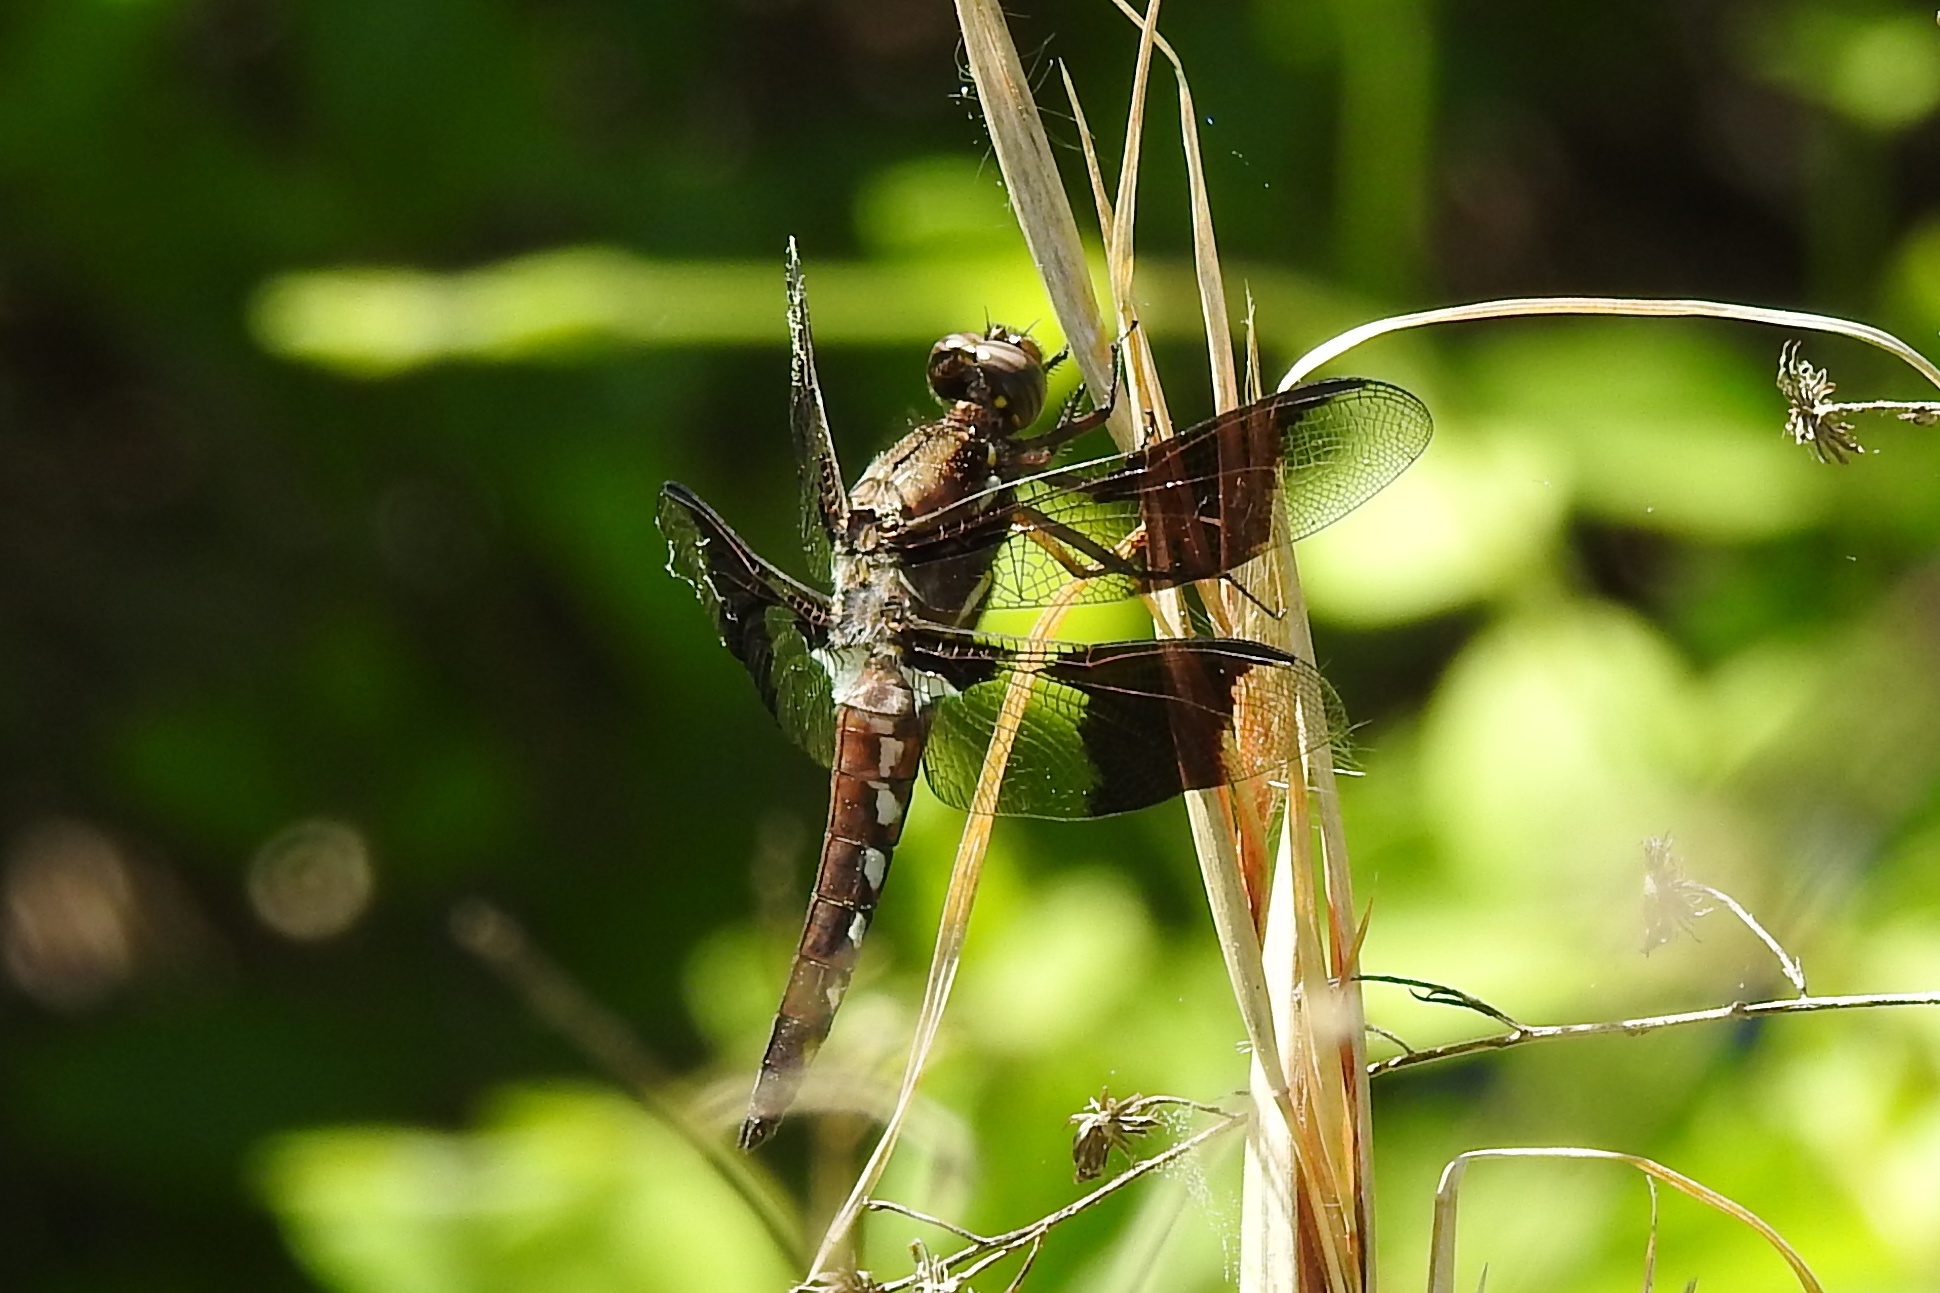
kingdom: Animalia
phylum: Arthropoda
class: Insecta
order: Odonata
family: Libellulidae
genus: Plathemis
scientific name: Plathemis lydia
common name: Common whitetail
